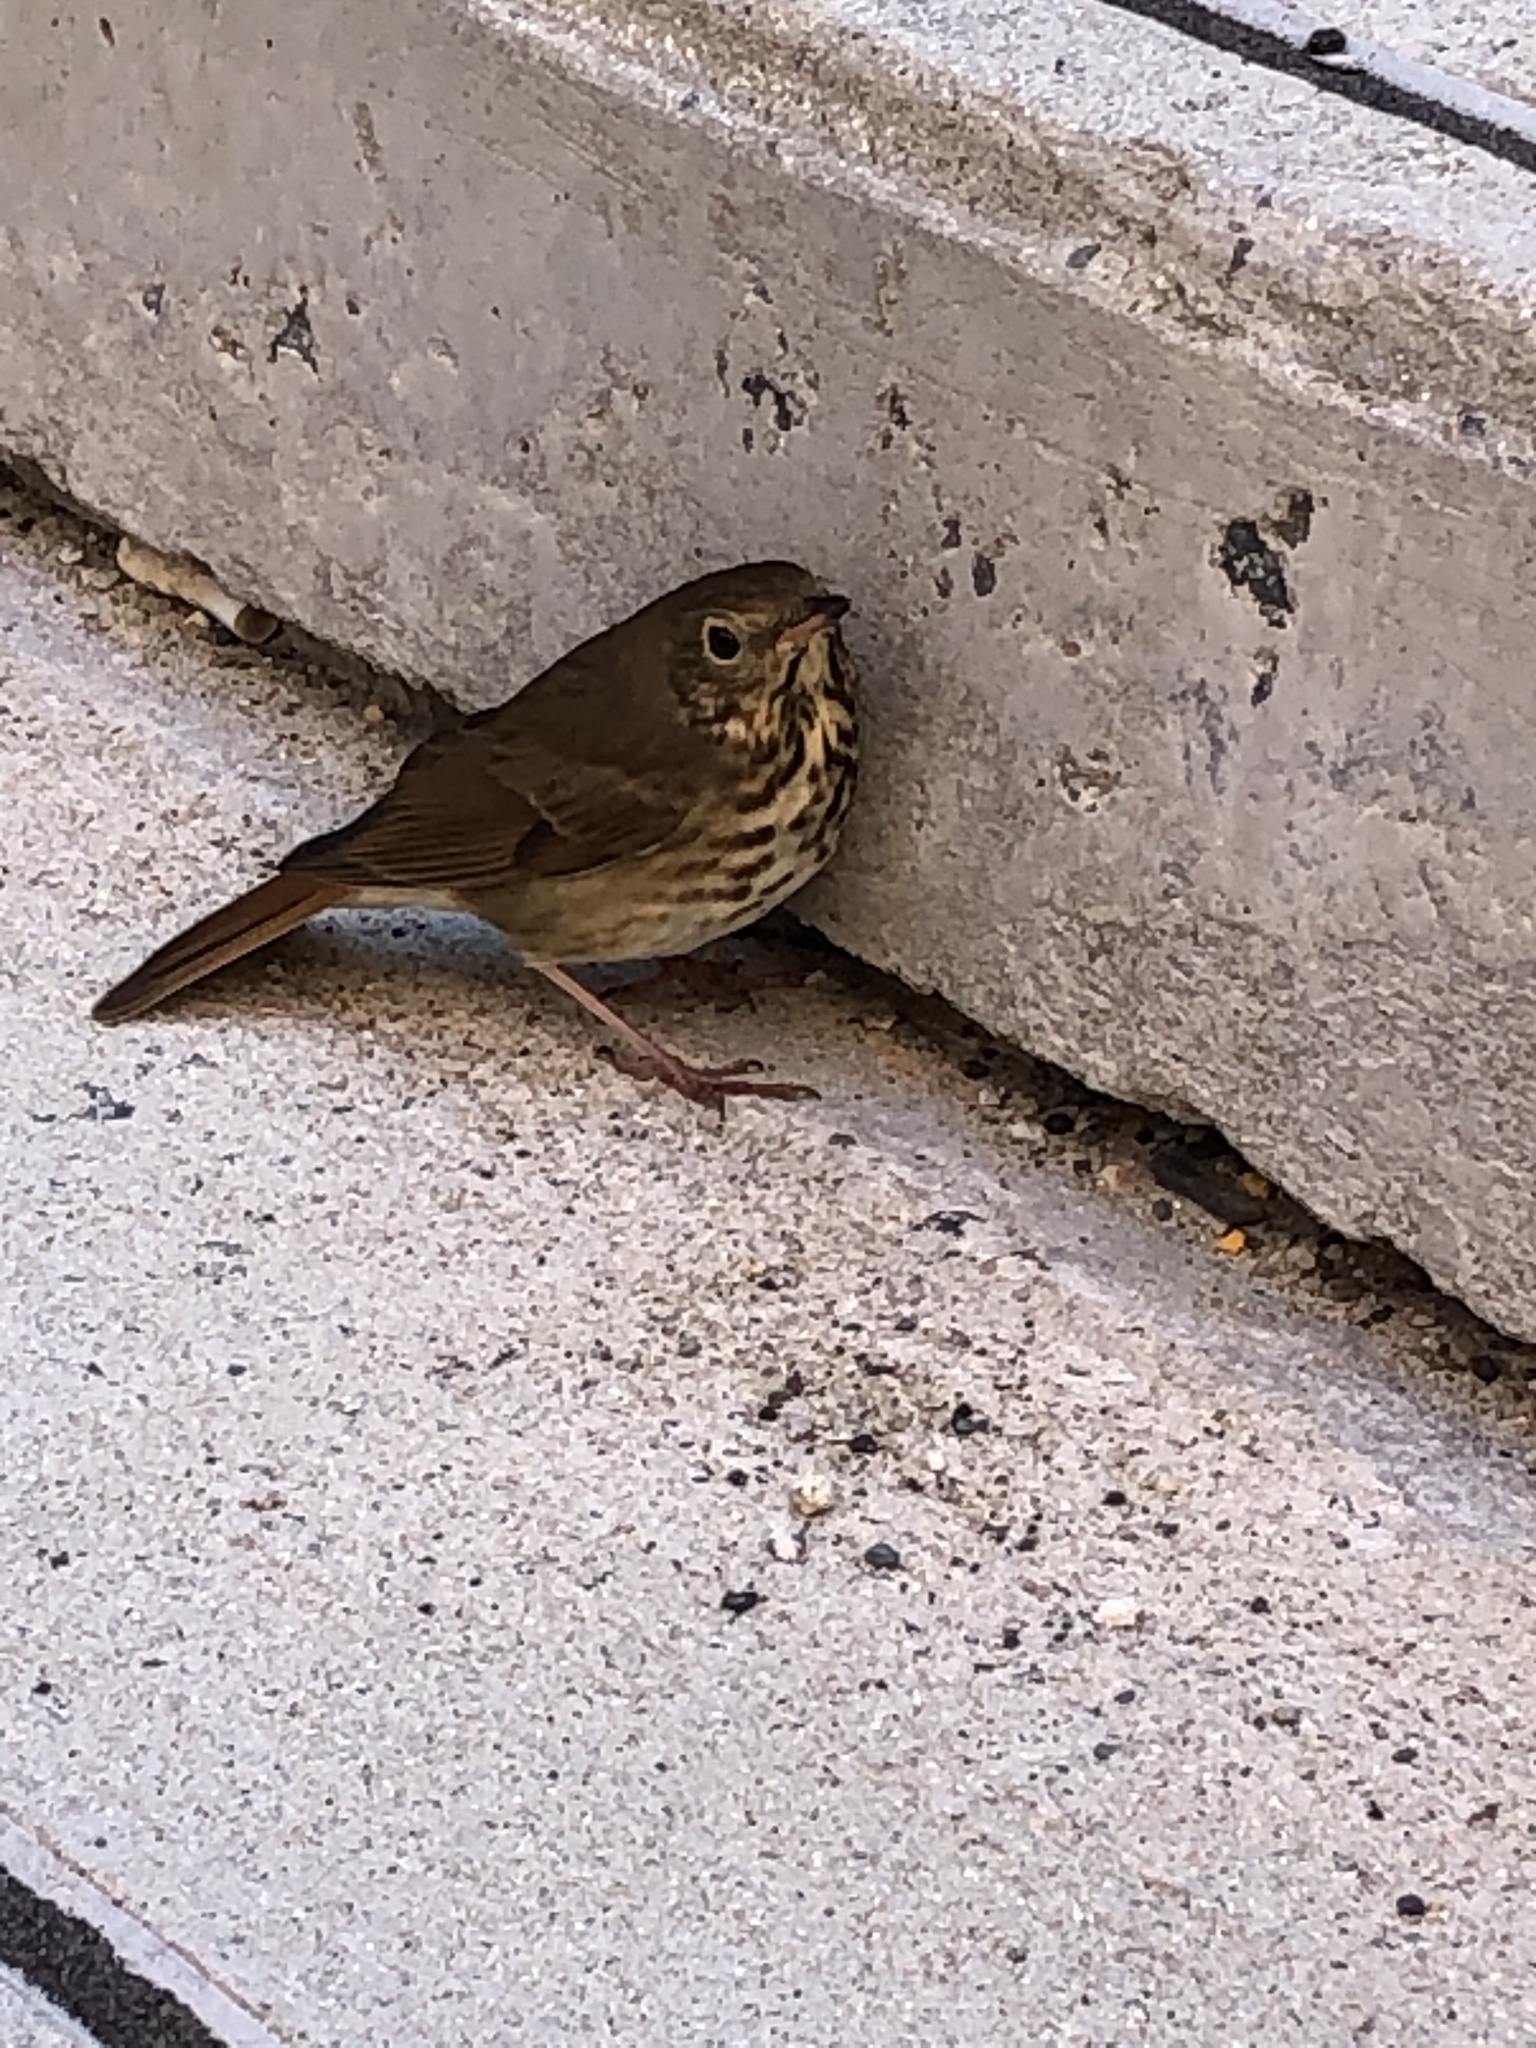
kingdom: Animalia
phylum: Chordata
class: Aves
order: Passeriformes
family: Turdidae
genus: Catharus
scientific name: Catharus guttatus
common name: Hermit thrush
